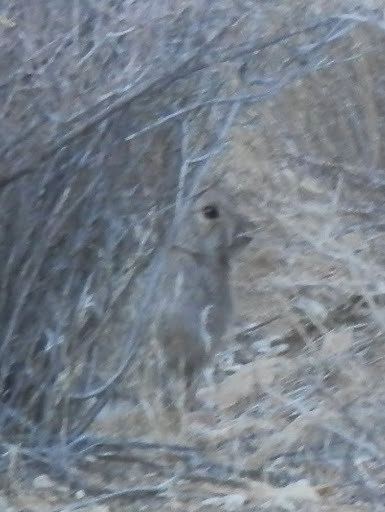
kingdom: Animalia
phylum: Chordata
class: Mammalia
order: Lagomorpha
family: Leporidae
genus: Sylvilagus
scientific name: Sylvilagus audubonii
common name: Desert cottontail
